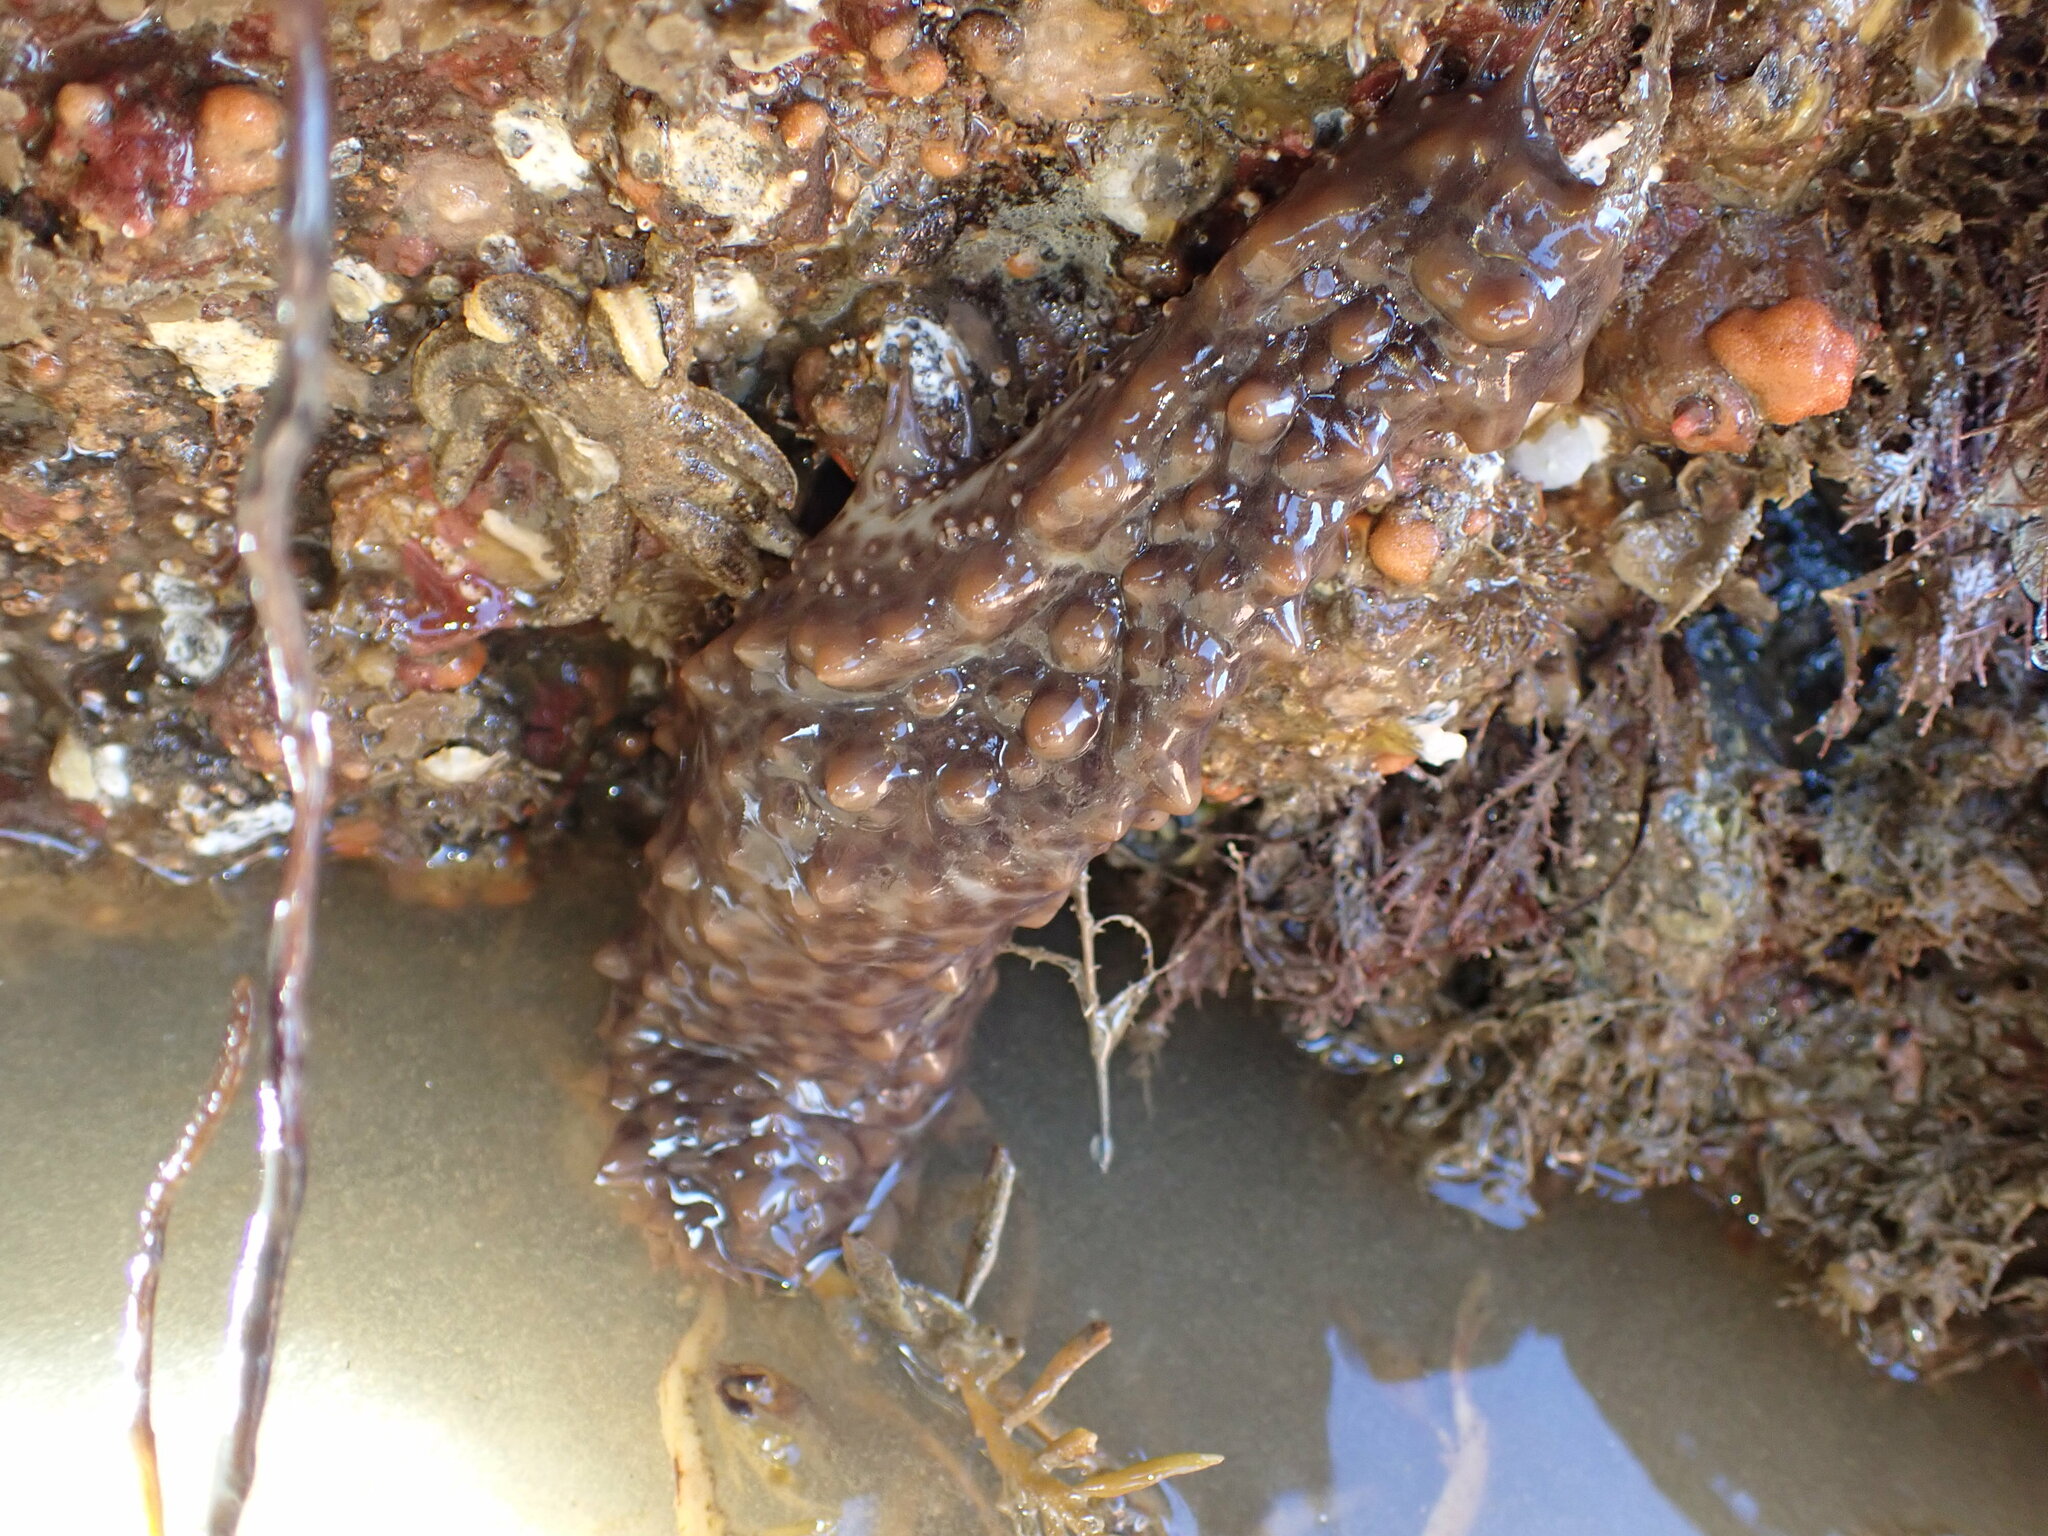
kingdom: Animalia
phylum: Echinodermata
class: Holothuroidea
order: Synallactida
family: Stichopodidae
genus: Australostichopus
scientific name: Australostichopus mollis
